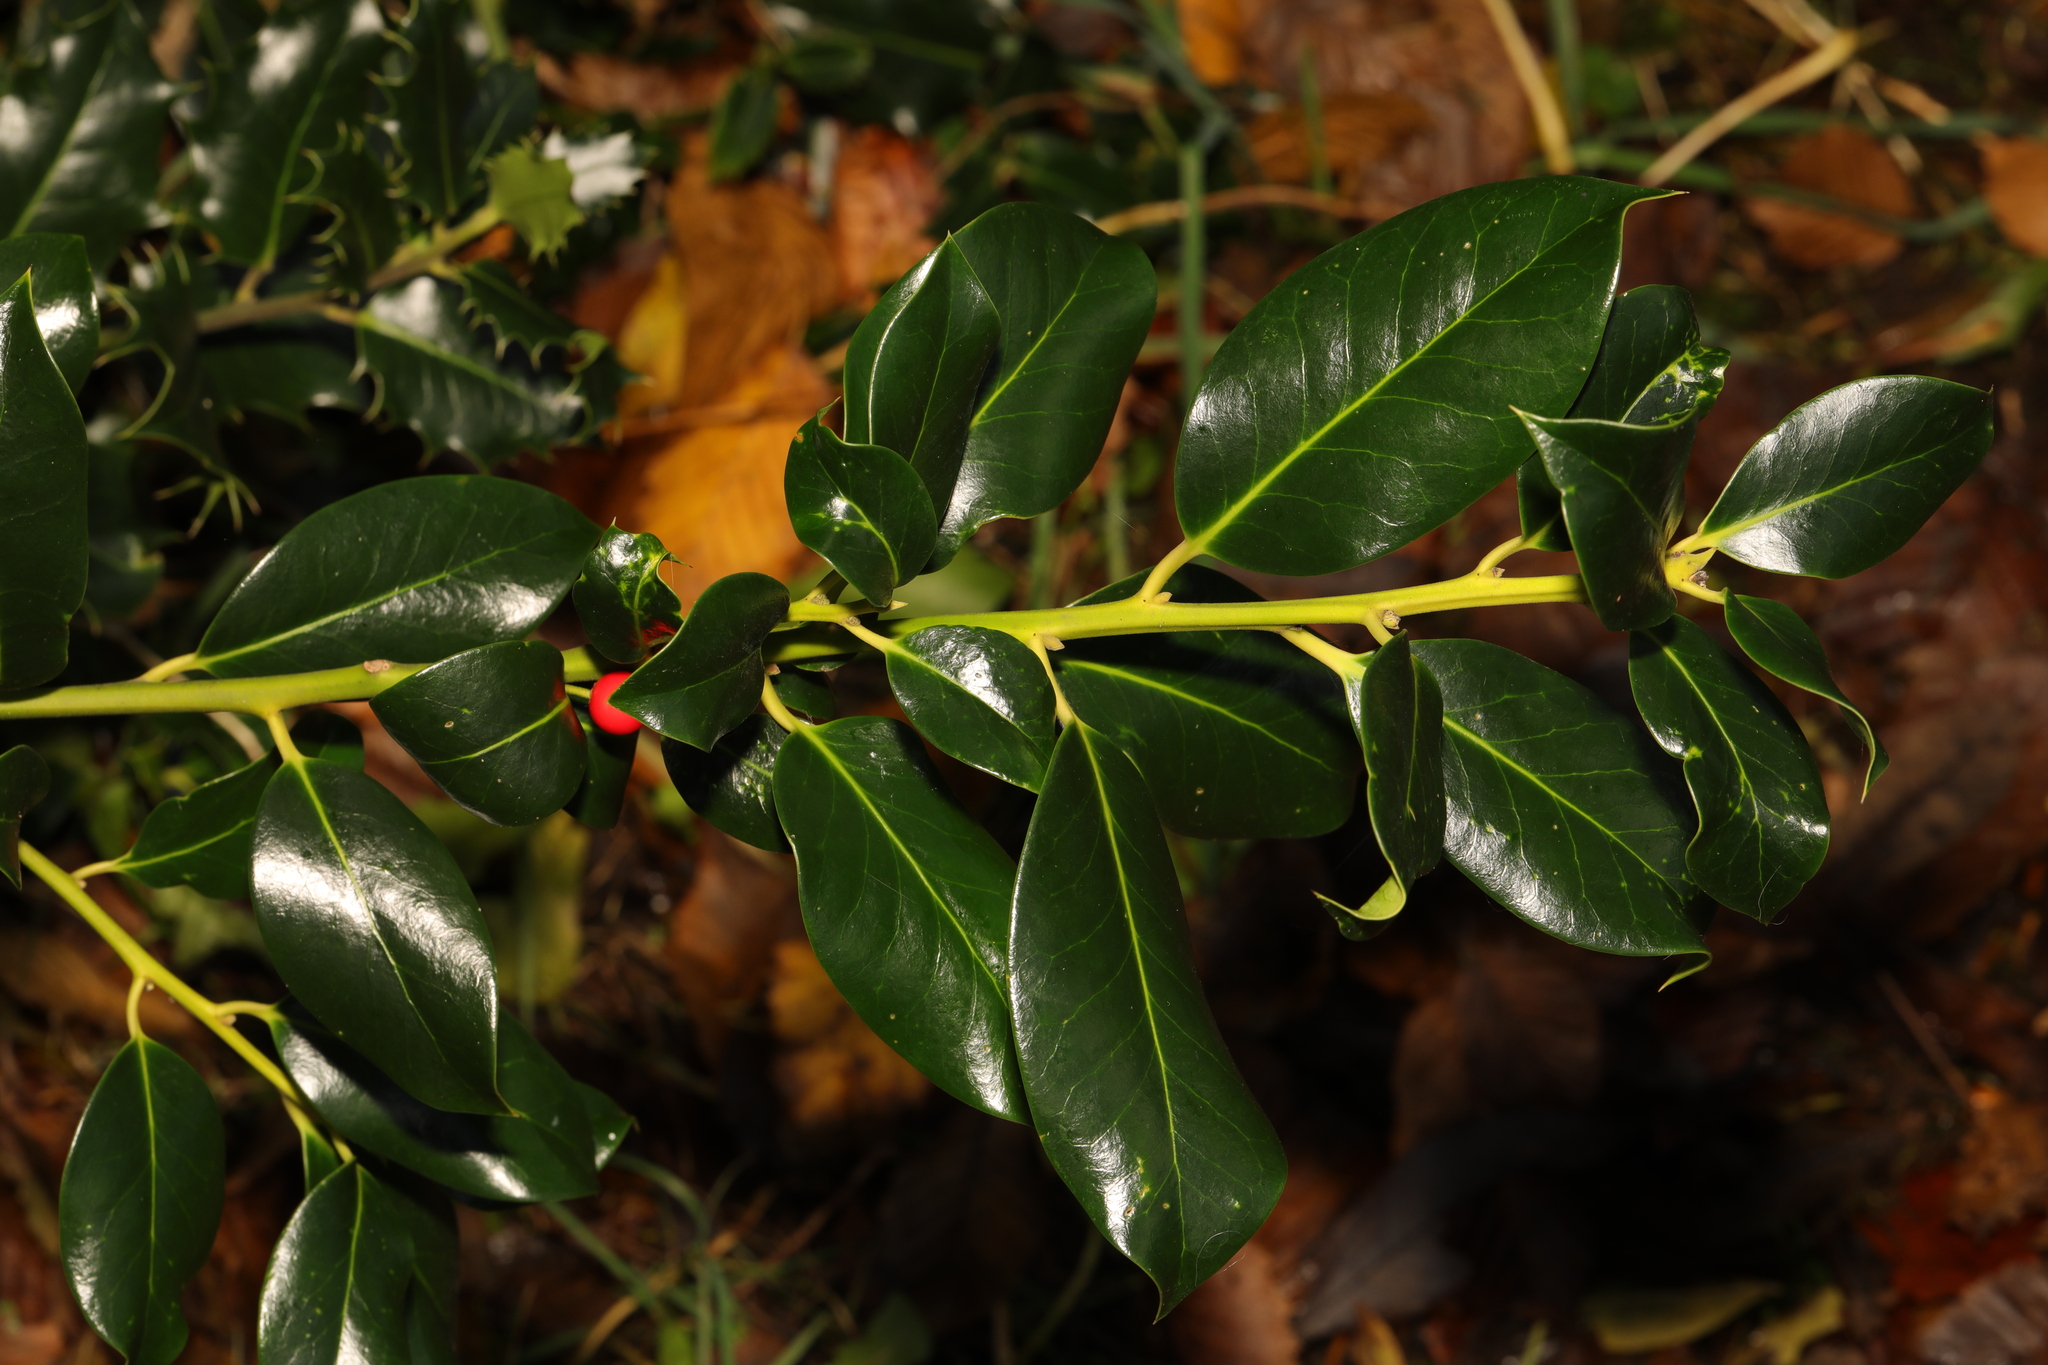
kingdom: Plantae
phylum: Tracheophyta
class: Magnoliopsida
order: Aquifoliales
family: Aquifoliaceae
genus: Ilex
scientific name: Ilex aquifolium
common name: English holly
